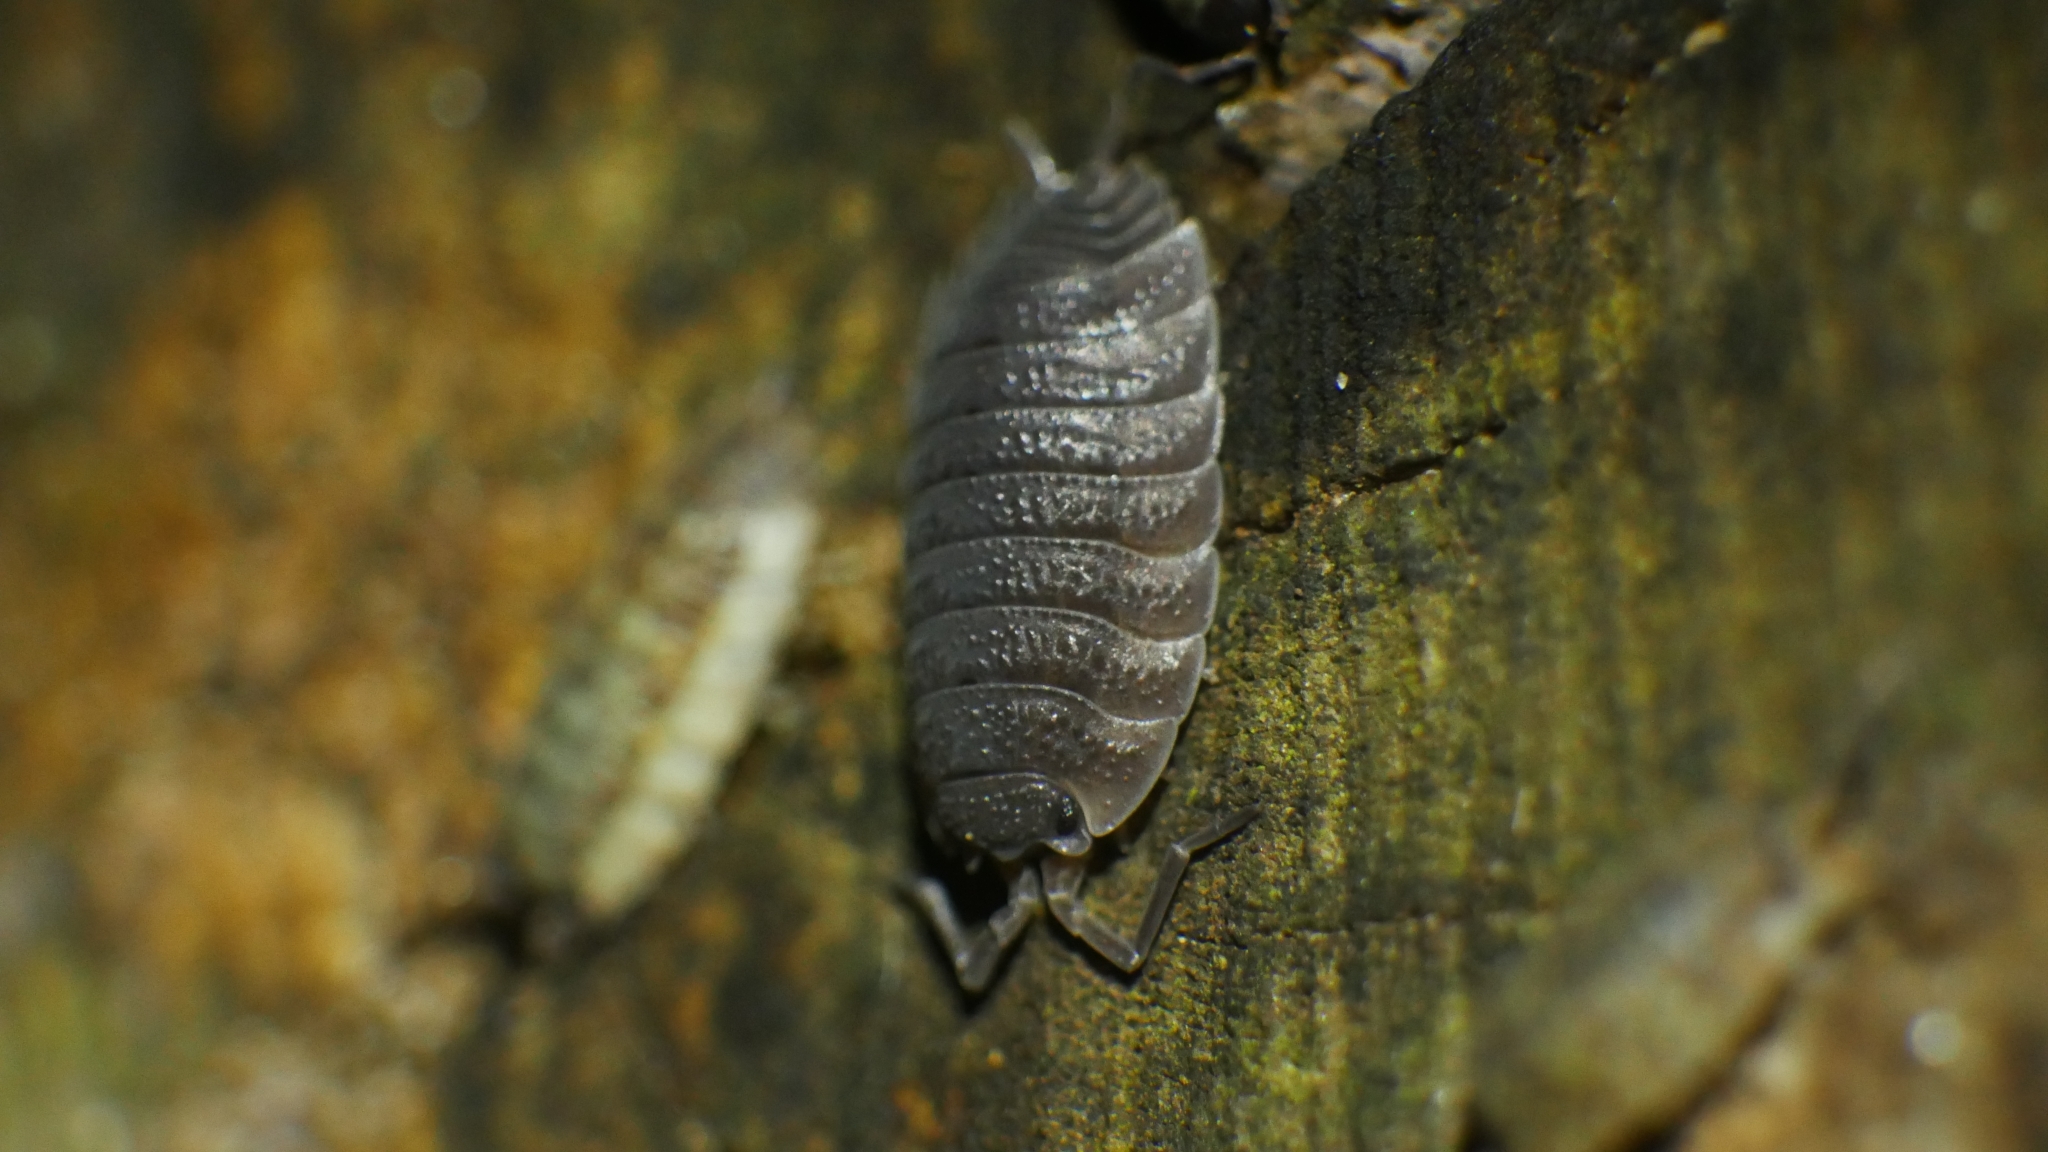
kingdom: Animalia
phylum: Arthropoda
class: Malacostraca
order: Isopoda
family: Porcellionidae
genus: Porcellio
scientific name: Porcellio scaber
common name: Common rough woodlouse
